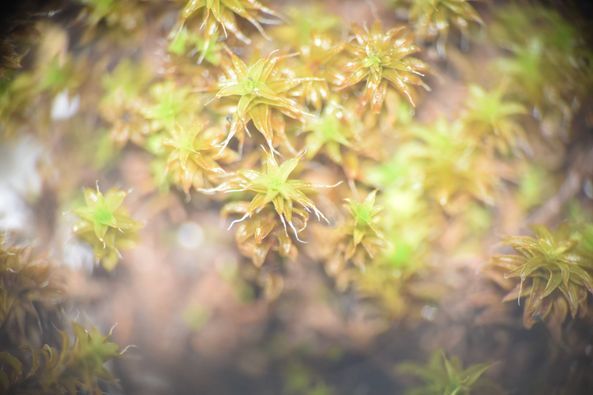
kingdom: Plantae
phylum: Bryophyta
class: Bryopsida
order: Pottiales
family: Pottiaceae
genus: Syntrichia
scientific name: Syntrichia ruralis
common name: Sidewalk screw moss
